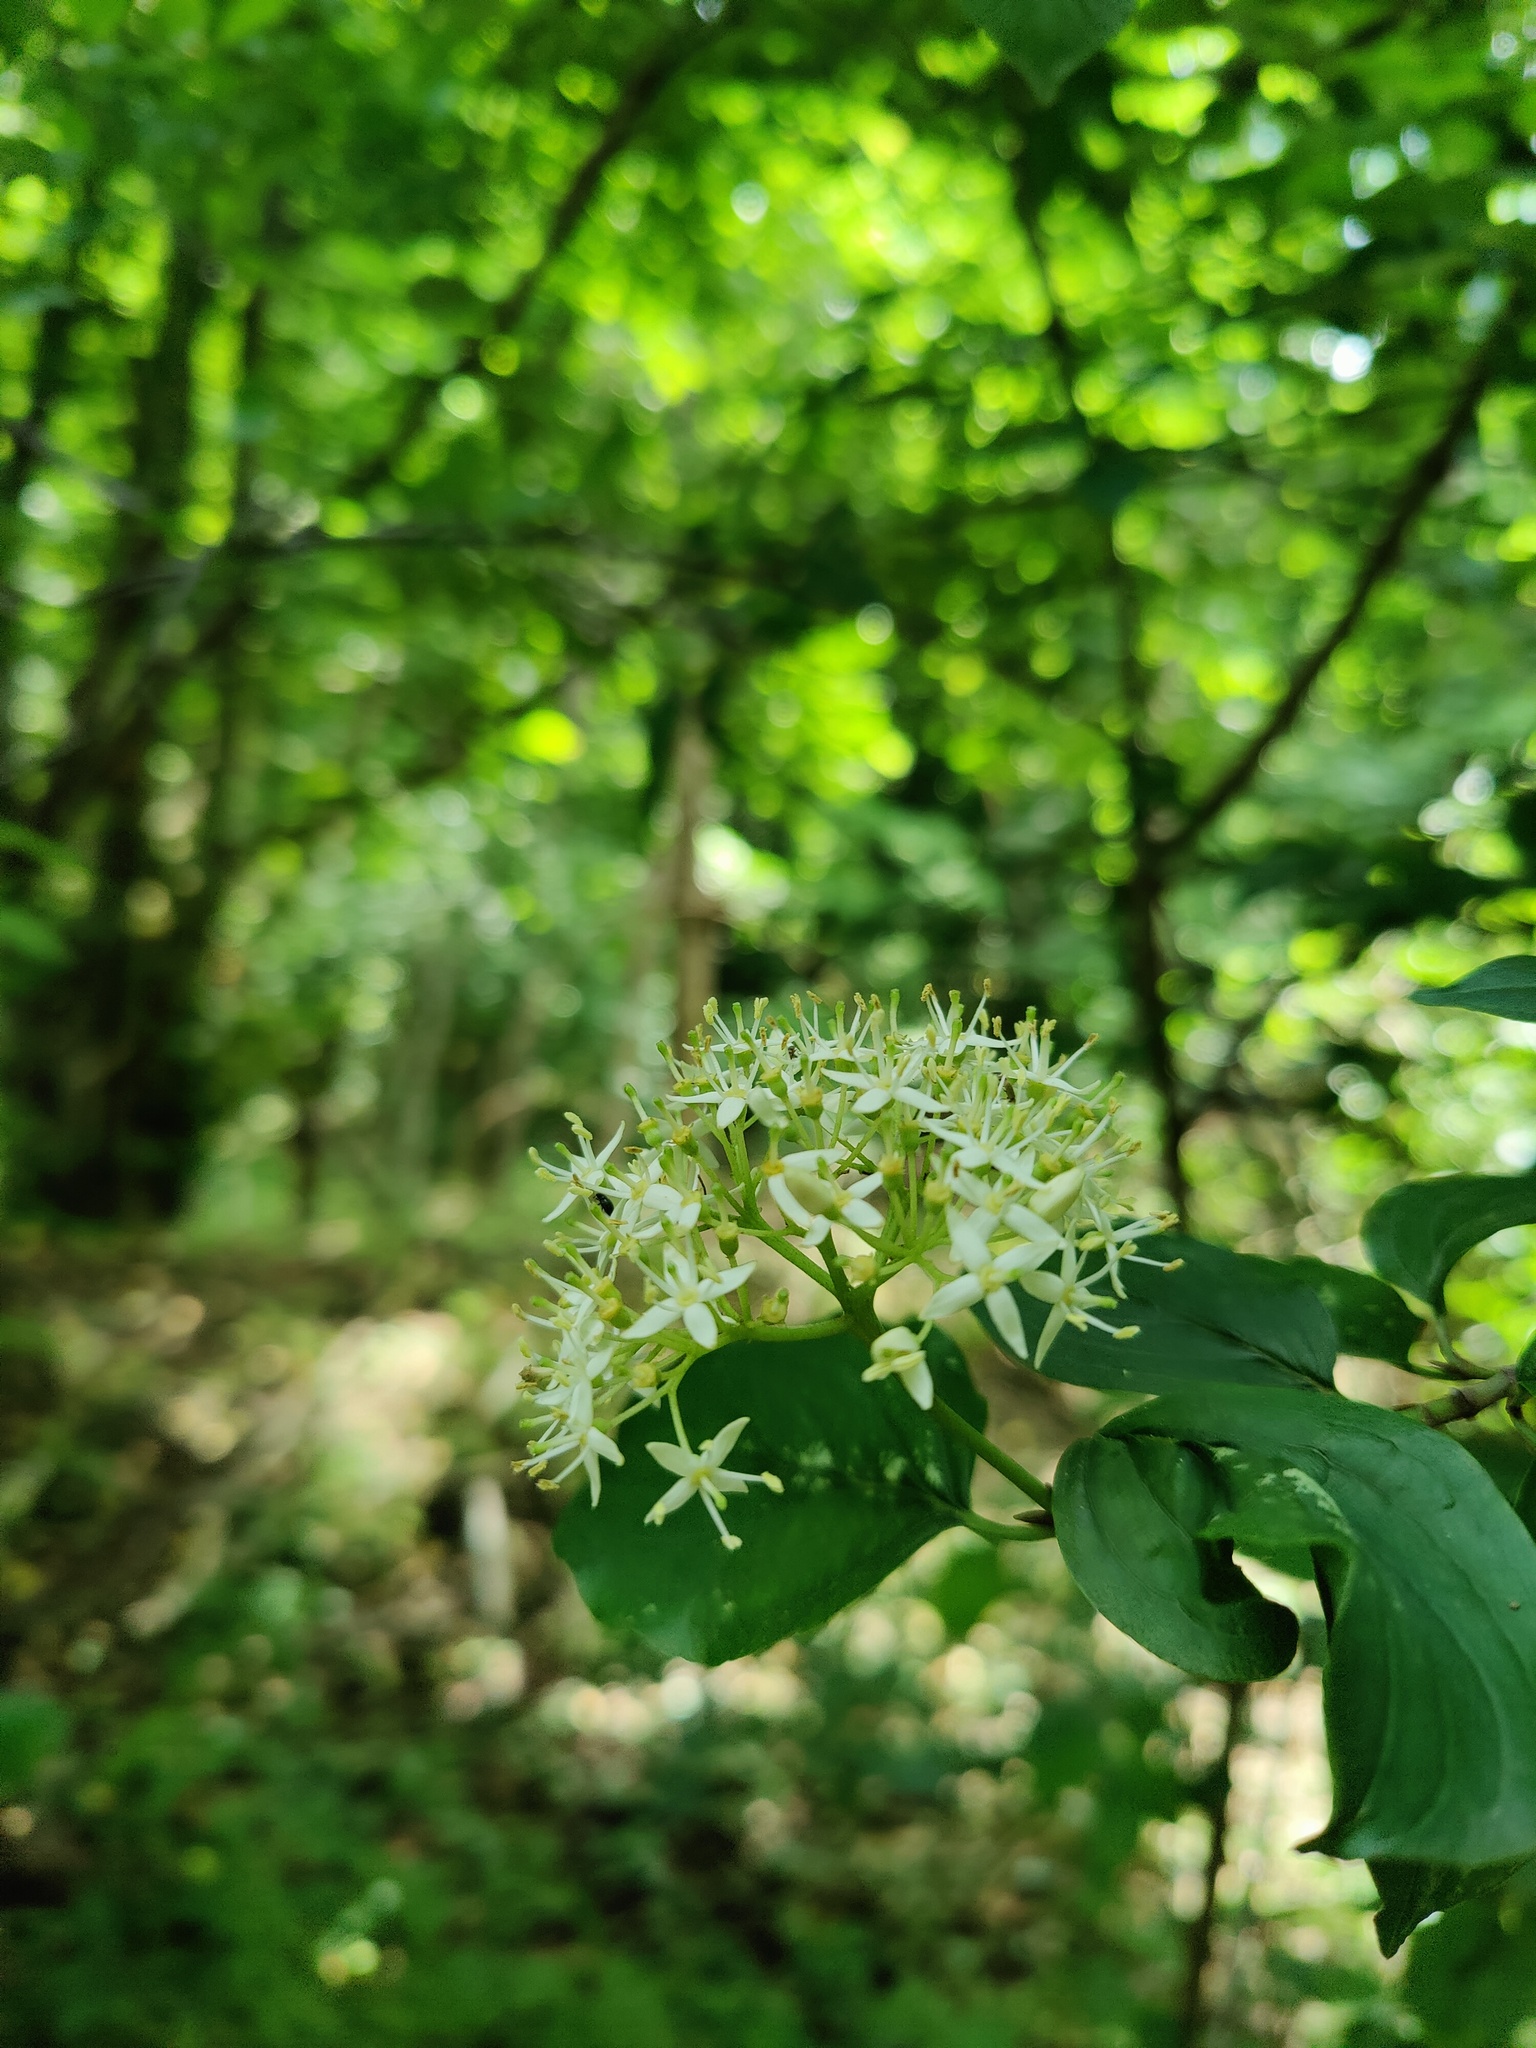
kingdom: Plantae
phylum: Tracheophyta
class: Magnoliopsida
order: Cornales
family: Cornaceae
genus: Cornus
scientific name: Cornus sanguinea
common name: Dogwood
